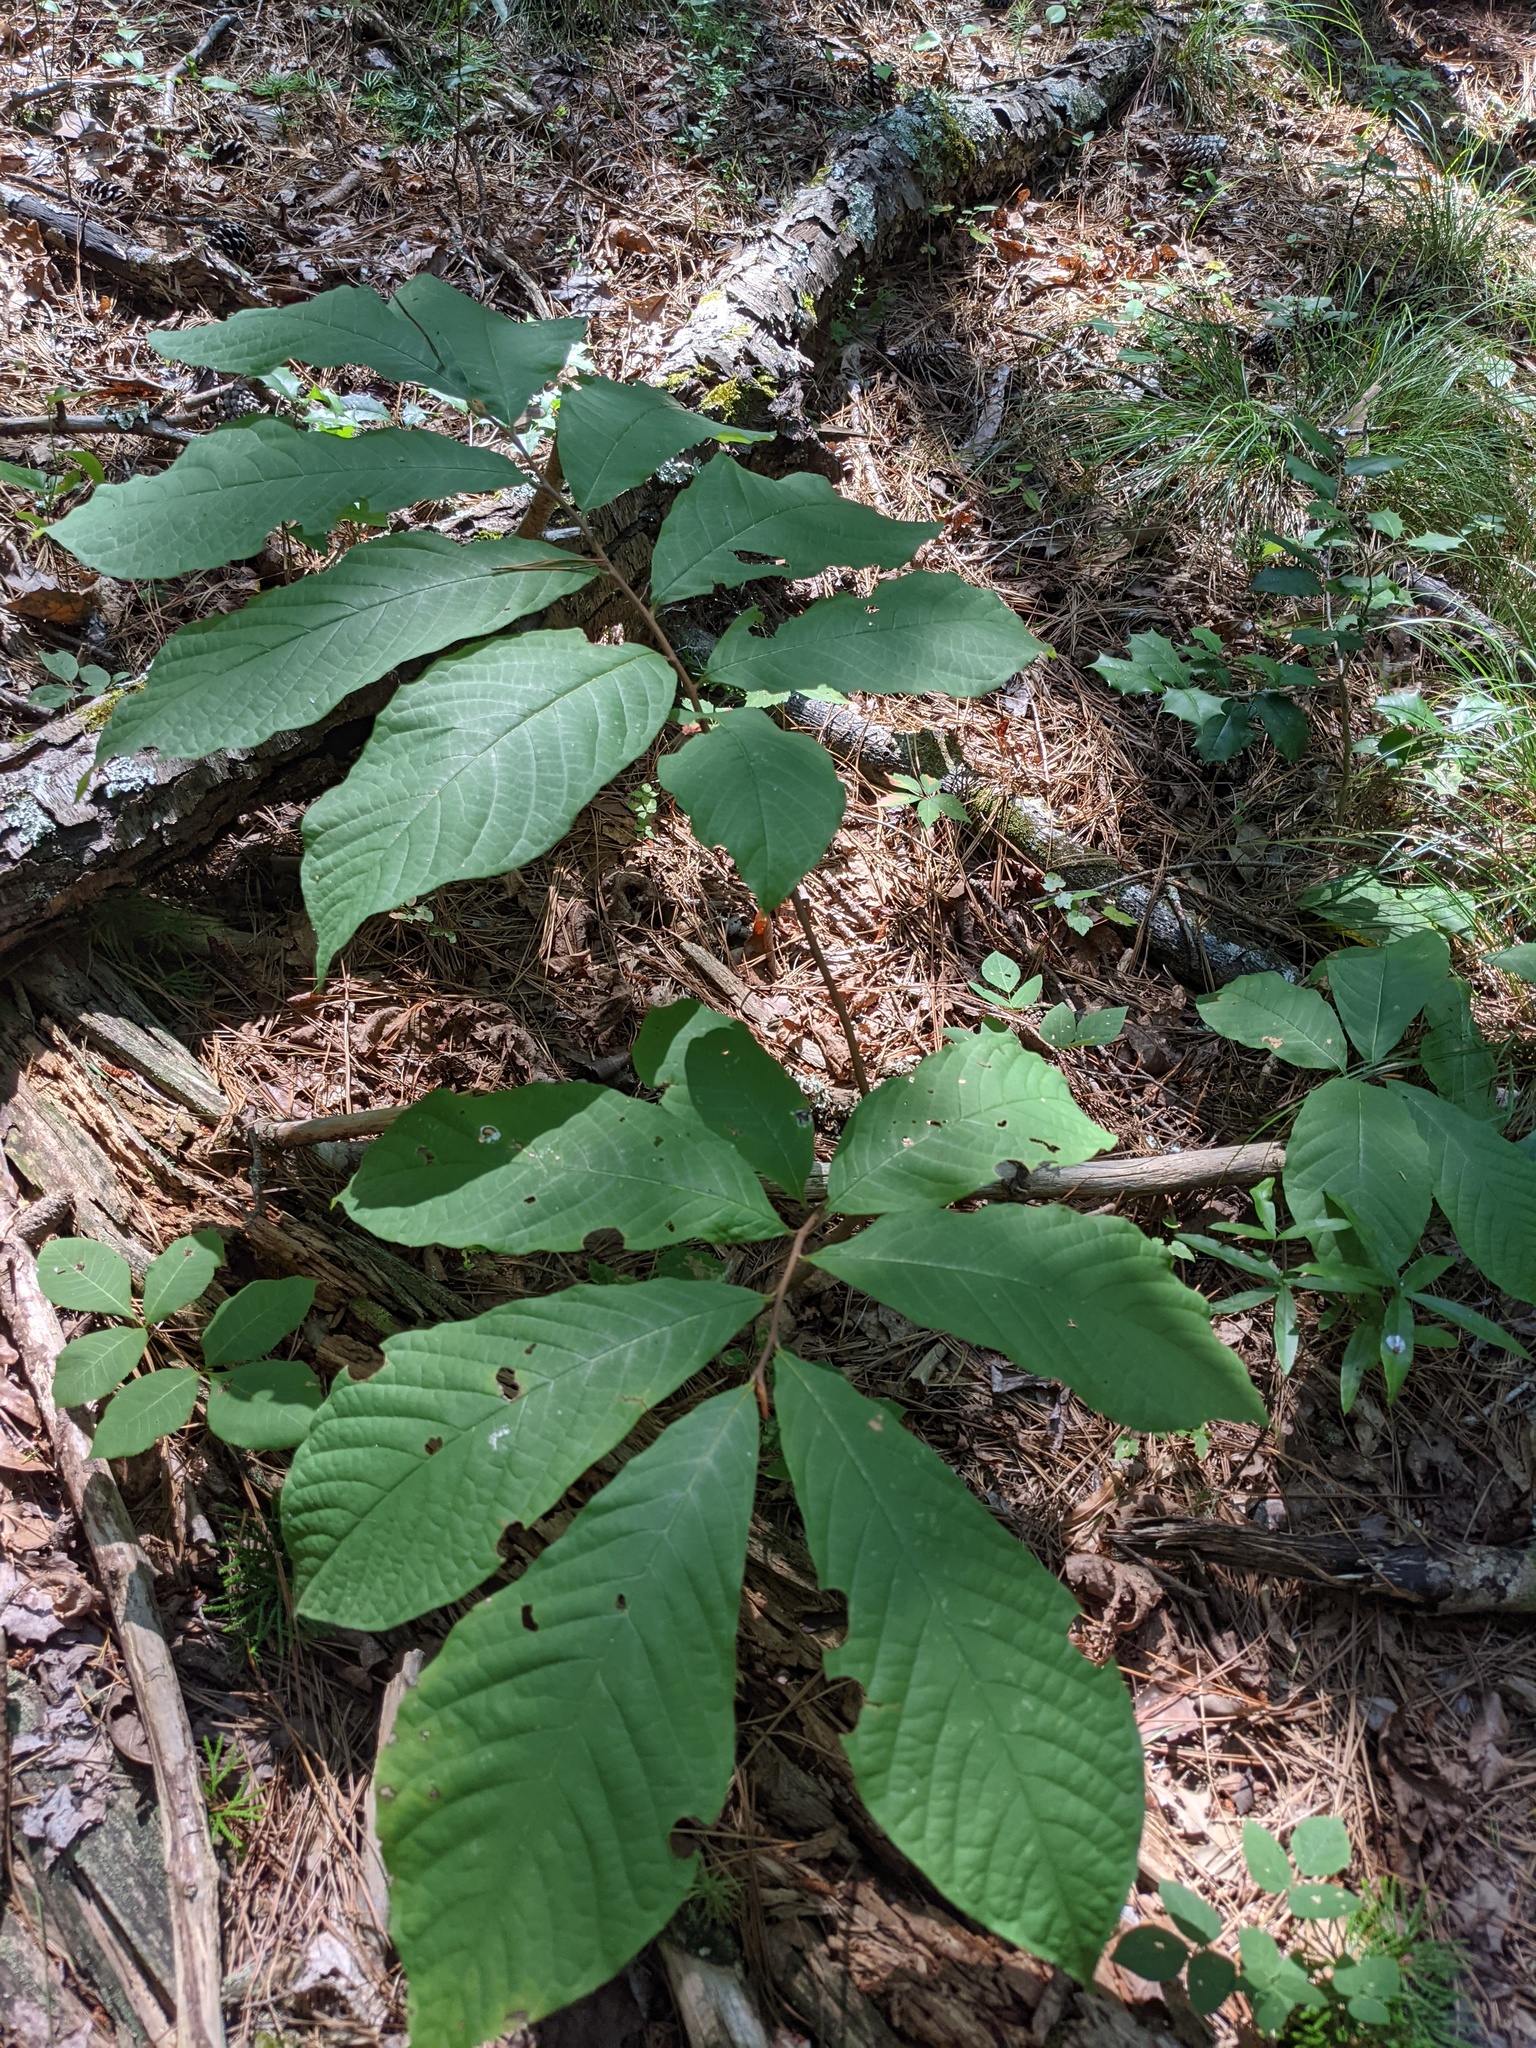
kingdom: Plantae
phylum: Tracheophyta
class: Magnoliopsida
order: Magnoliales
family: Annonaceae
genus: Asimina
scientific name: Asimina triloba
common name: Dog-banana
